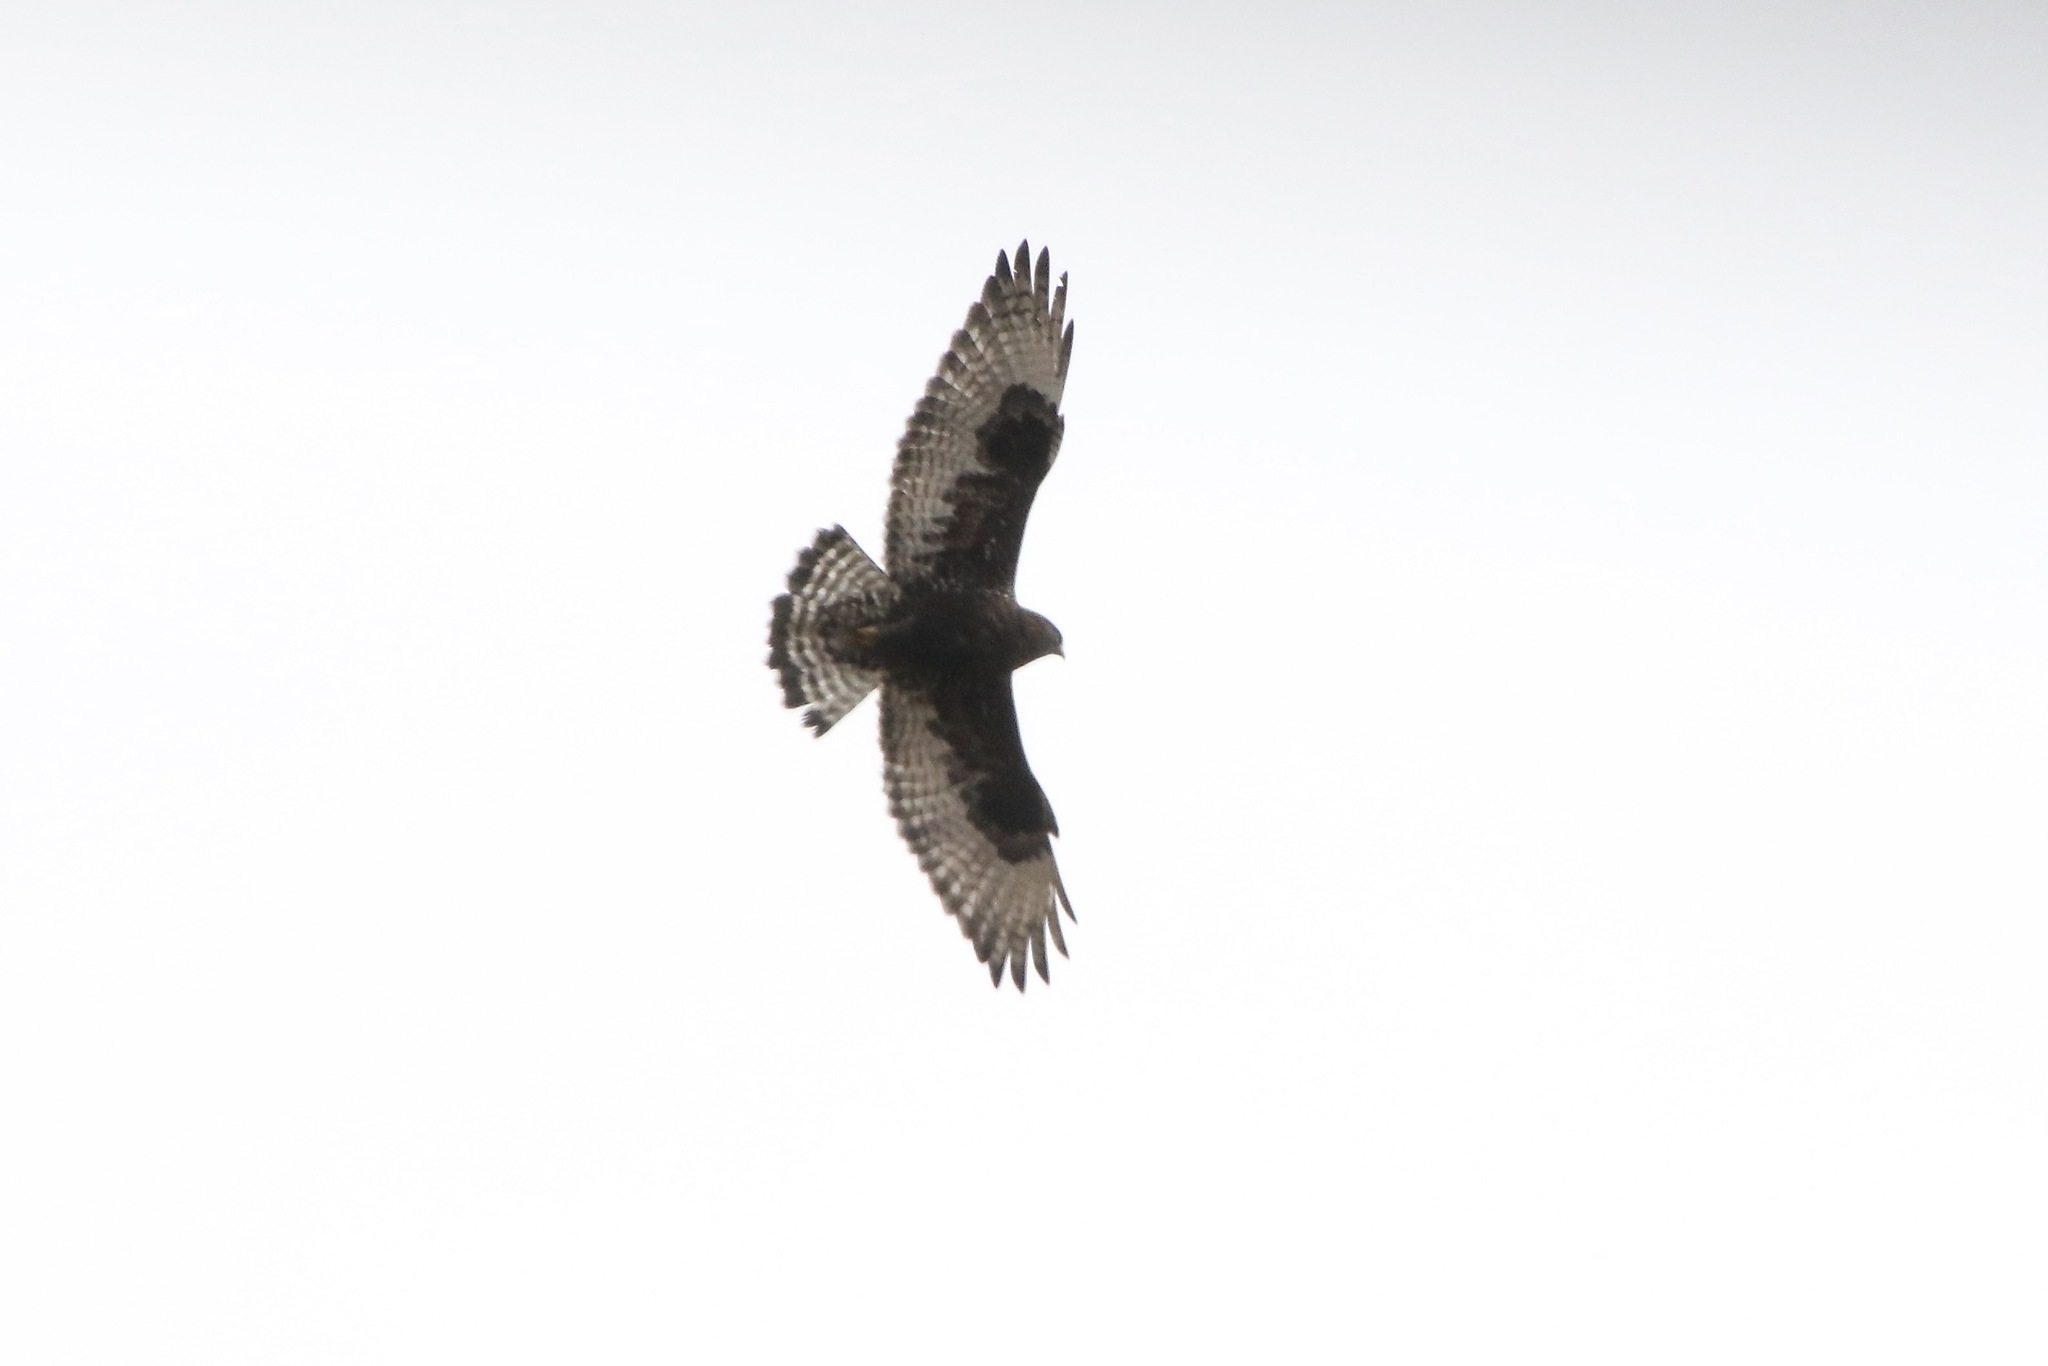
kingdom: Animalia
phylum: Chordata
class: Aves
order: Accipitriformes
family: Accipitridae
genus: Buteo
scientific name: Buteo lagopus
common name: Rough-legged buzzard
